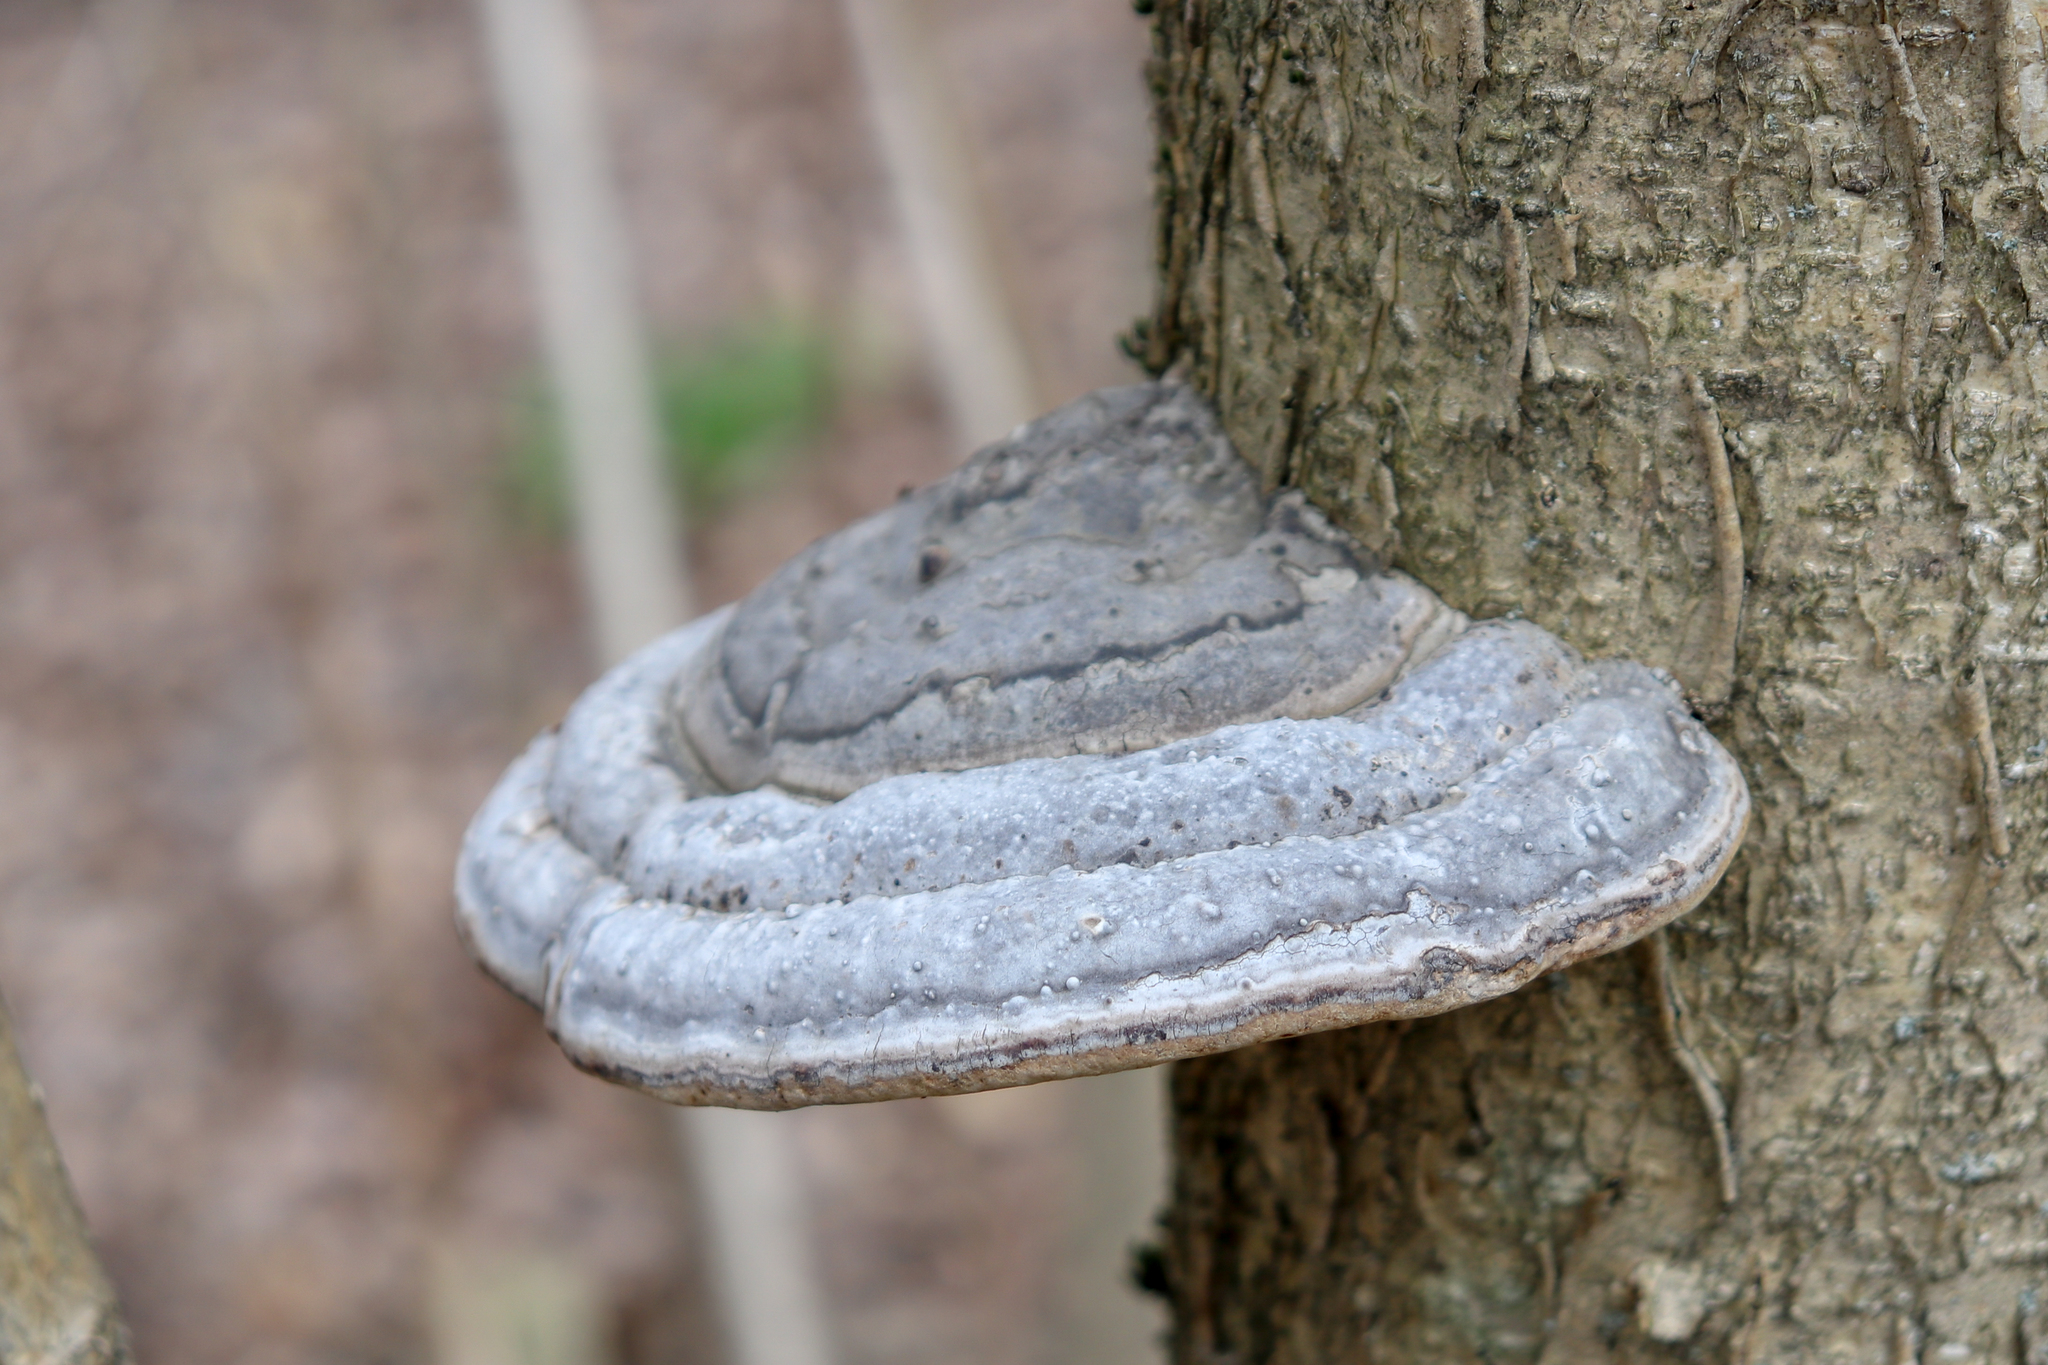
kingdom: Fungi
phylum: Basidiomycota
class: Agaricomycetes
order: Polyporales
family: Polyporaceae
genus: Fomes
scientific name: Fomes fomentarius
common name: Hoof fungus
